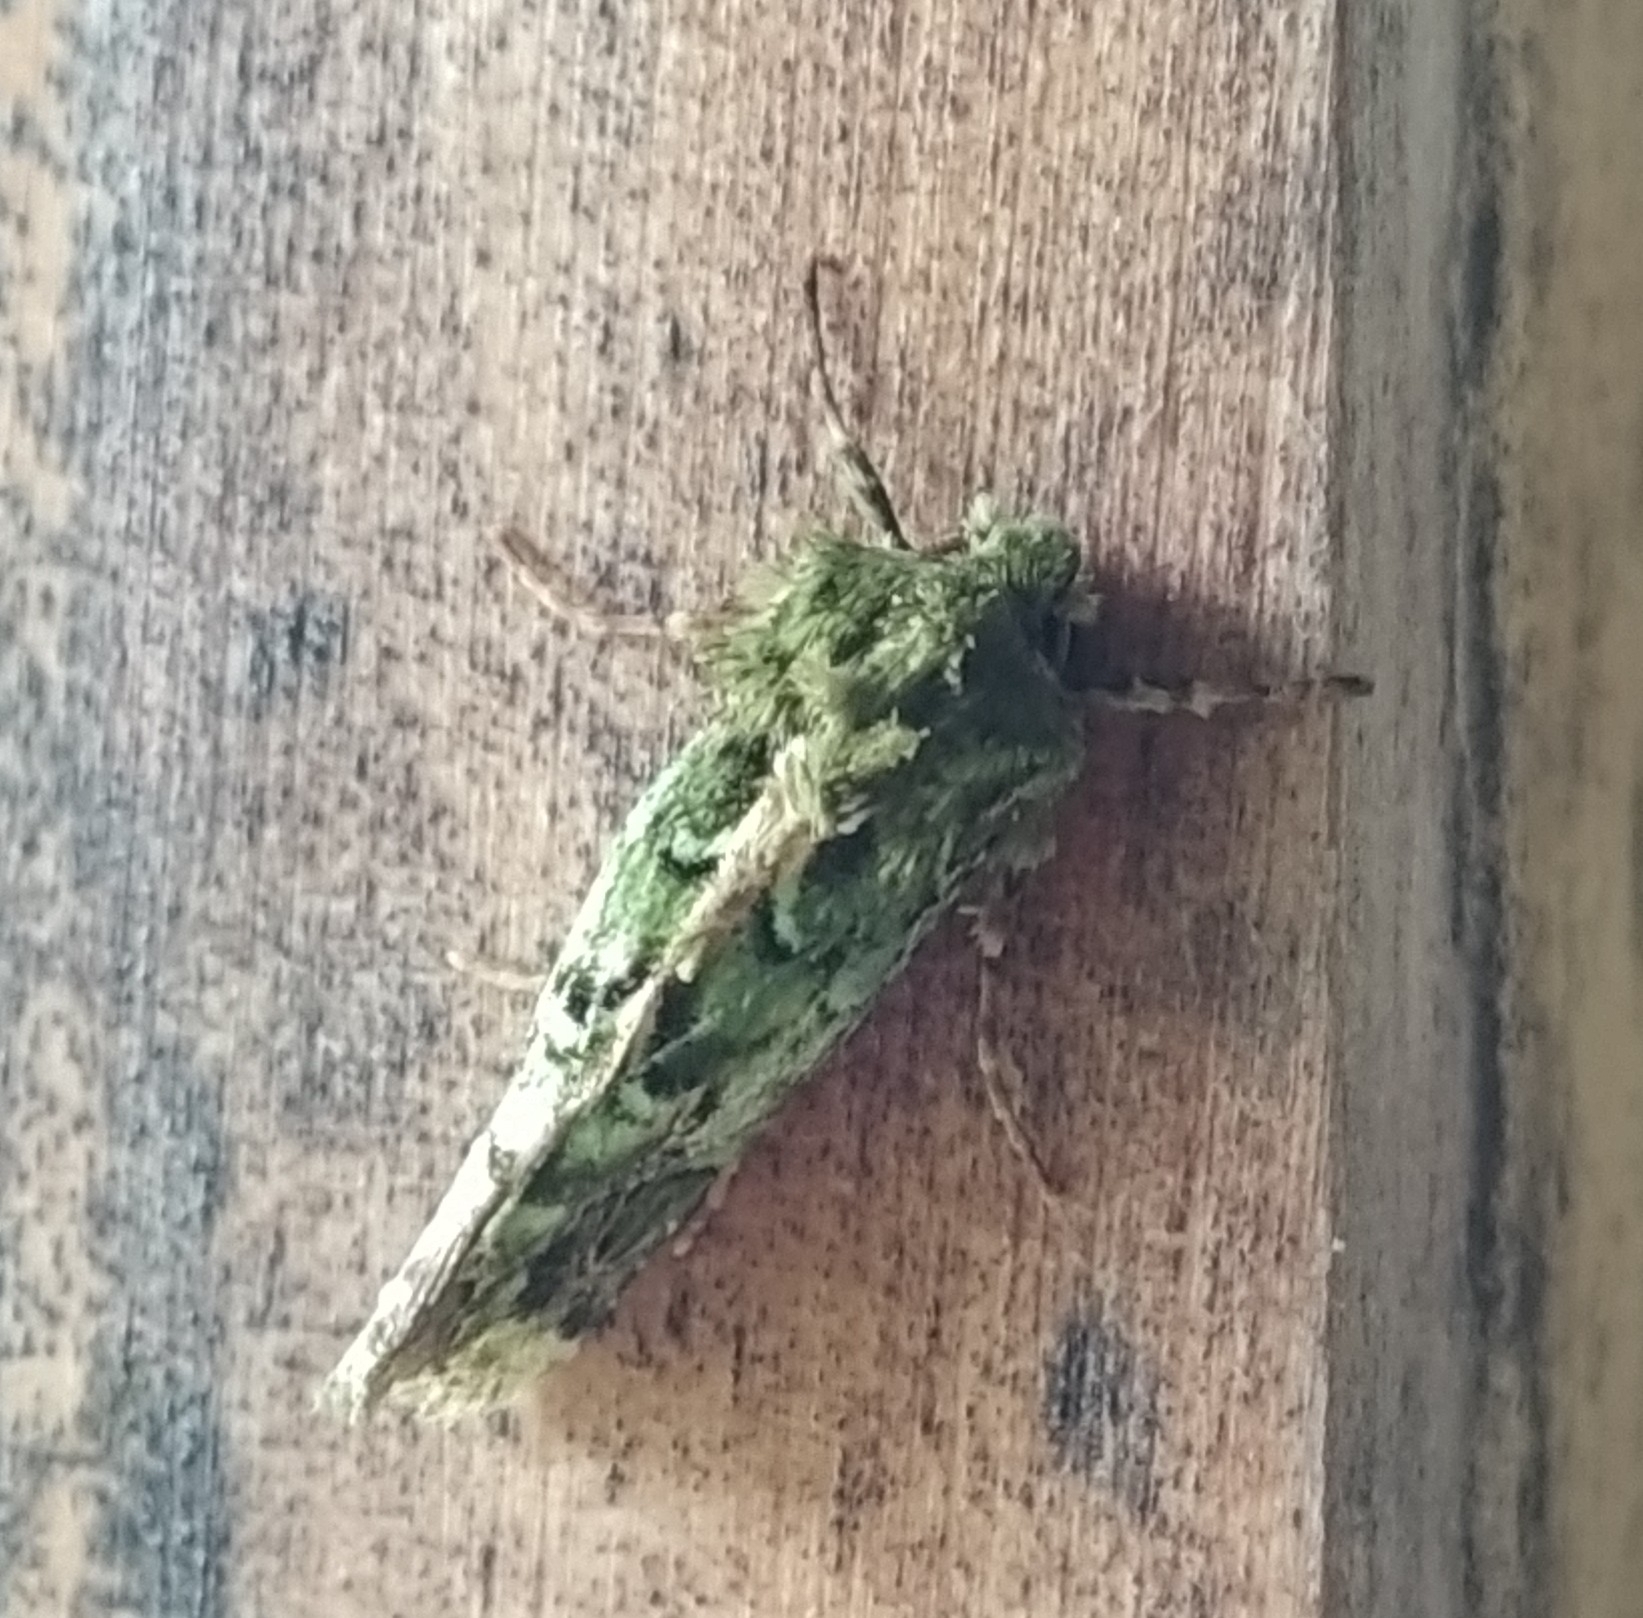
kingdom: Animalia
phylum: Arthropoda
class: Insecta
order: Lepidoptera
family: Noctuidae
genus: Feredayia
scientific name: Feredayia grammosa
